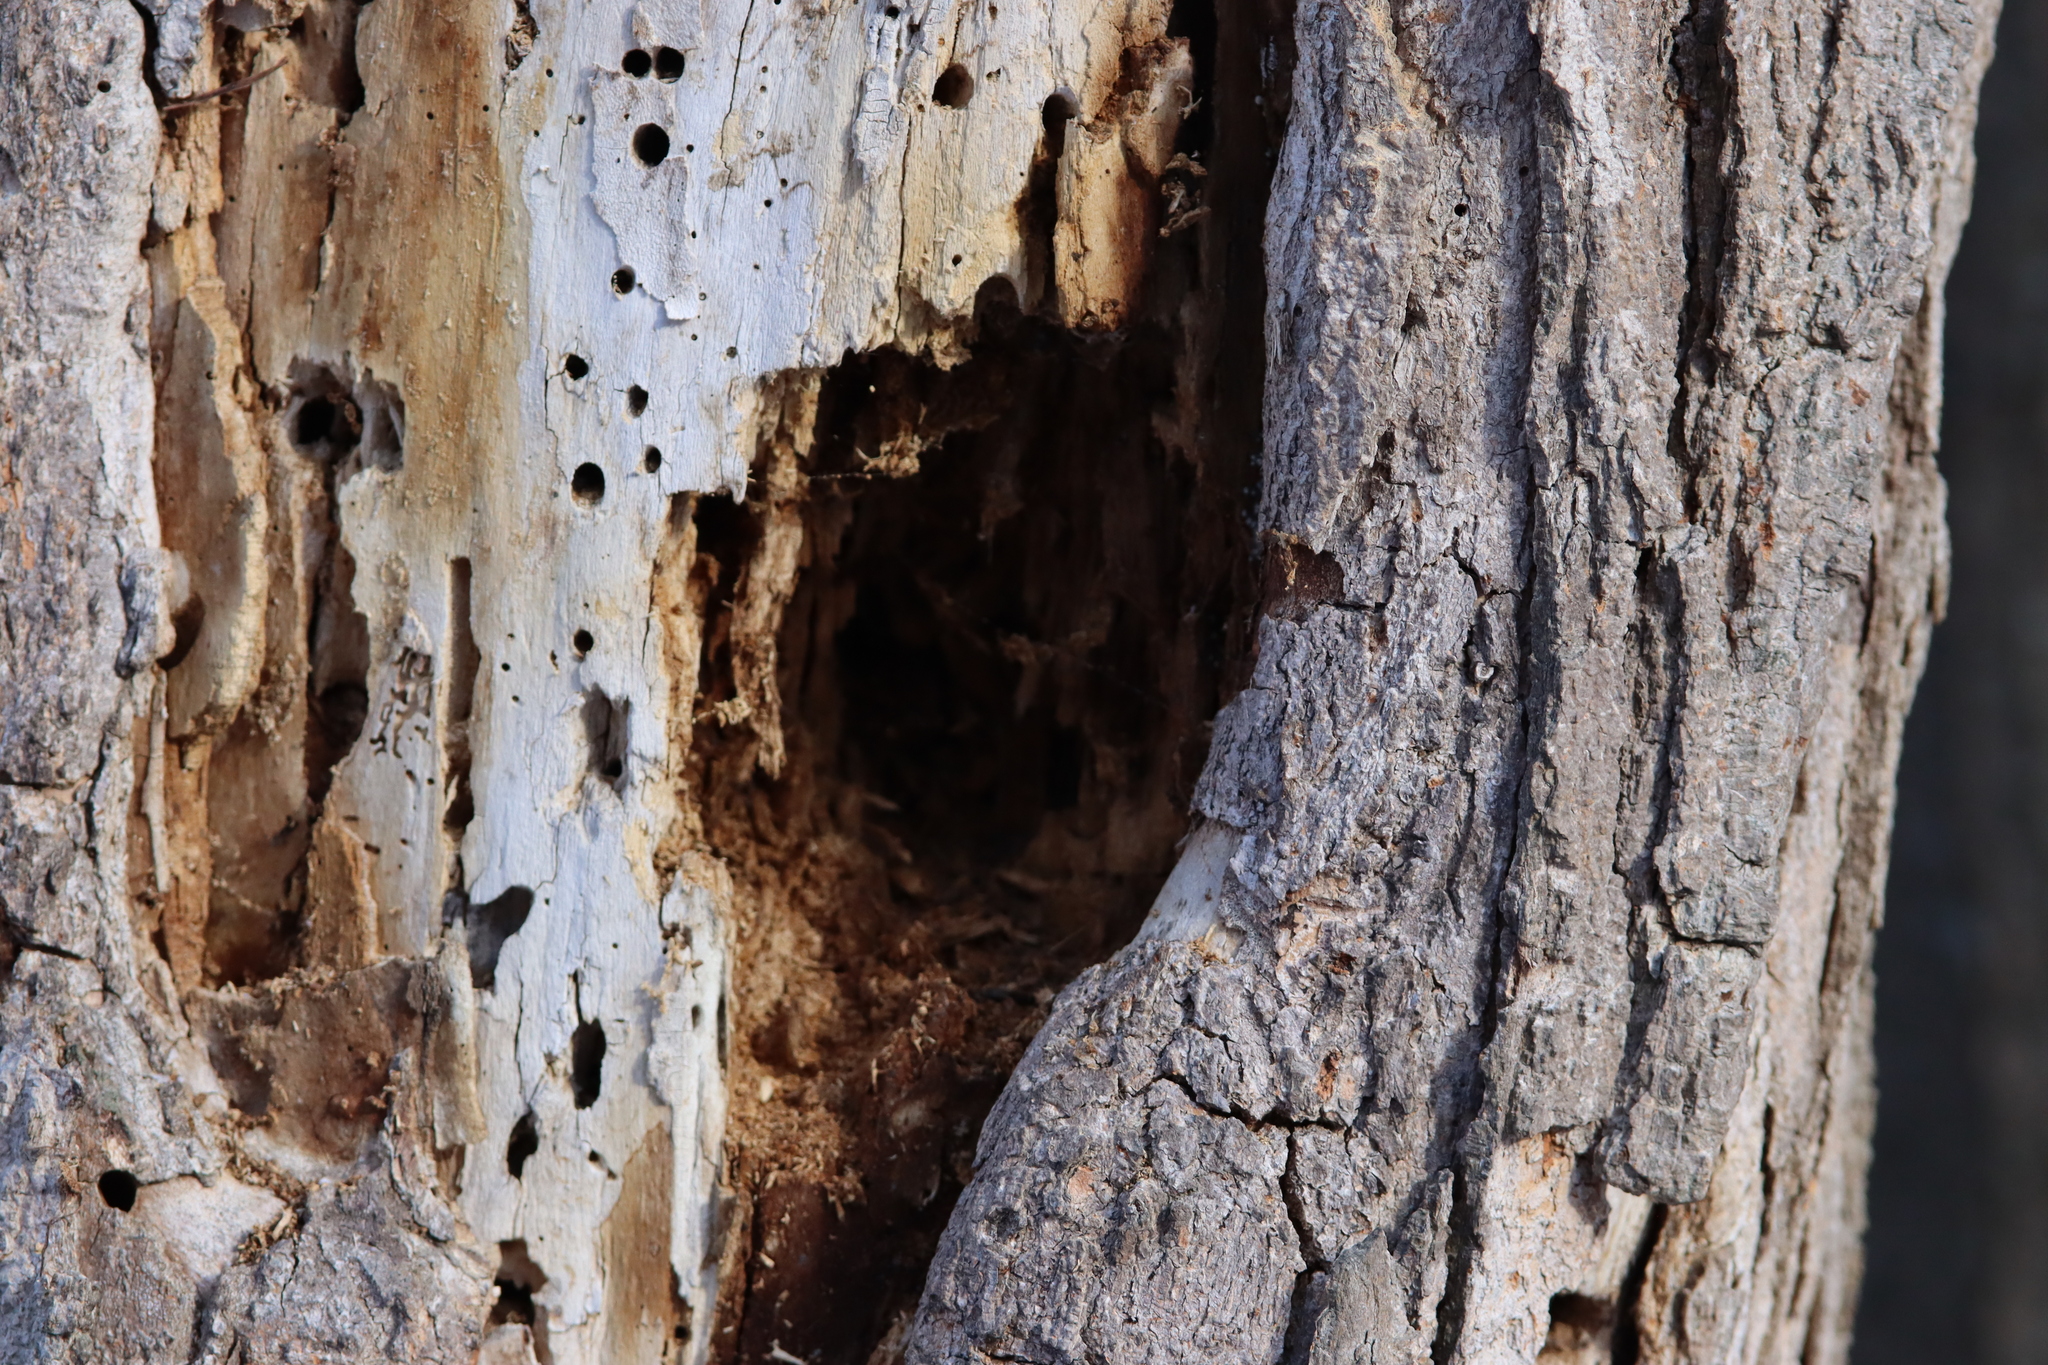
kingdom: Animalia
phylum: Chordata
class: Aves
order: Piciformes
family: Picidae
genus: Dryocopus
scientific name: Dryocopus pileatus
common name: Pileated woodpecker
